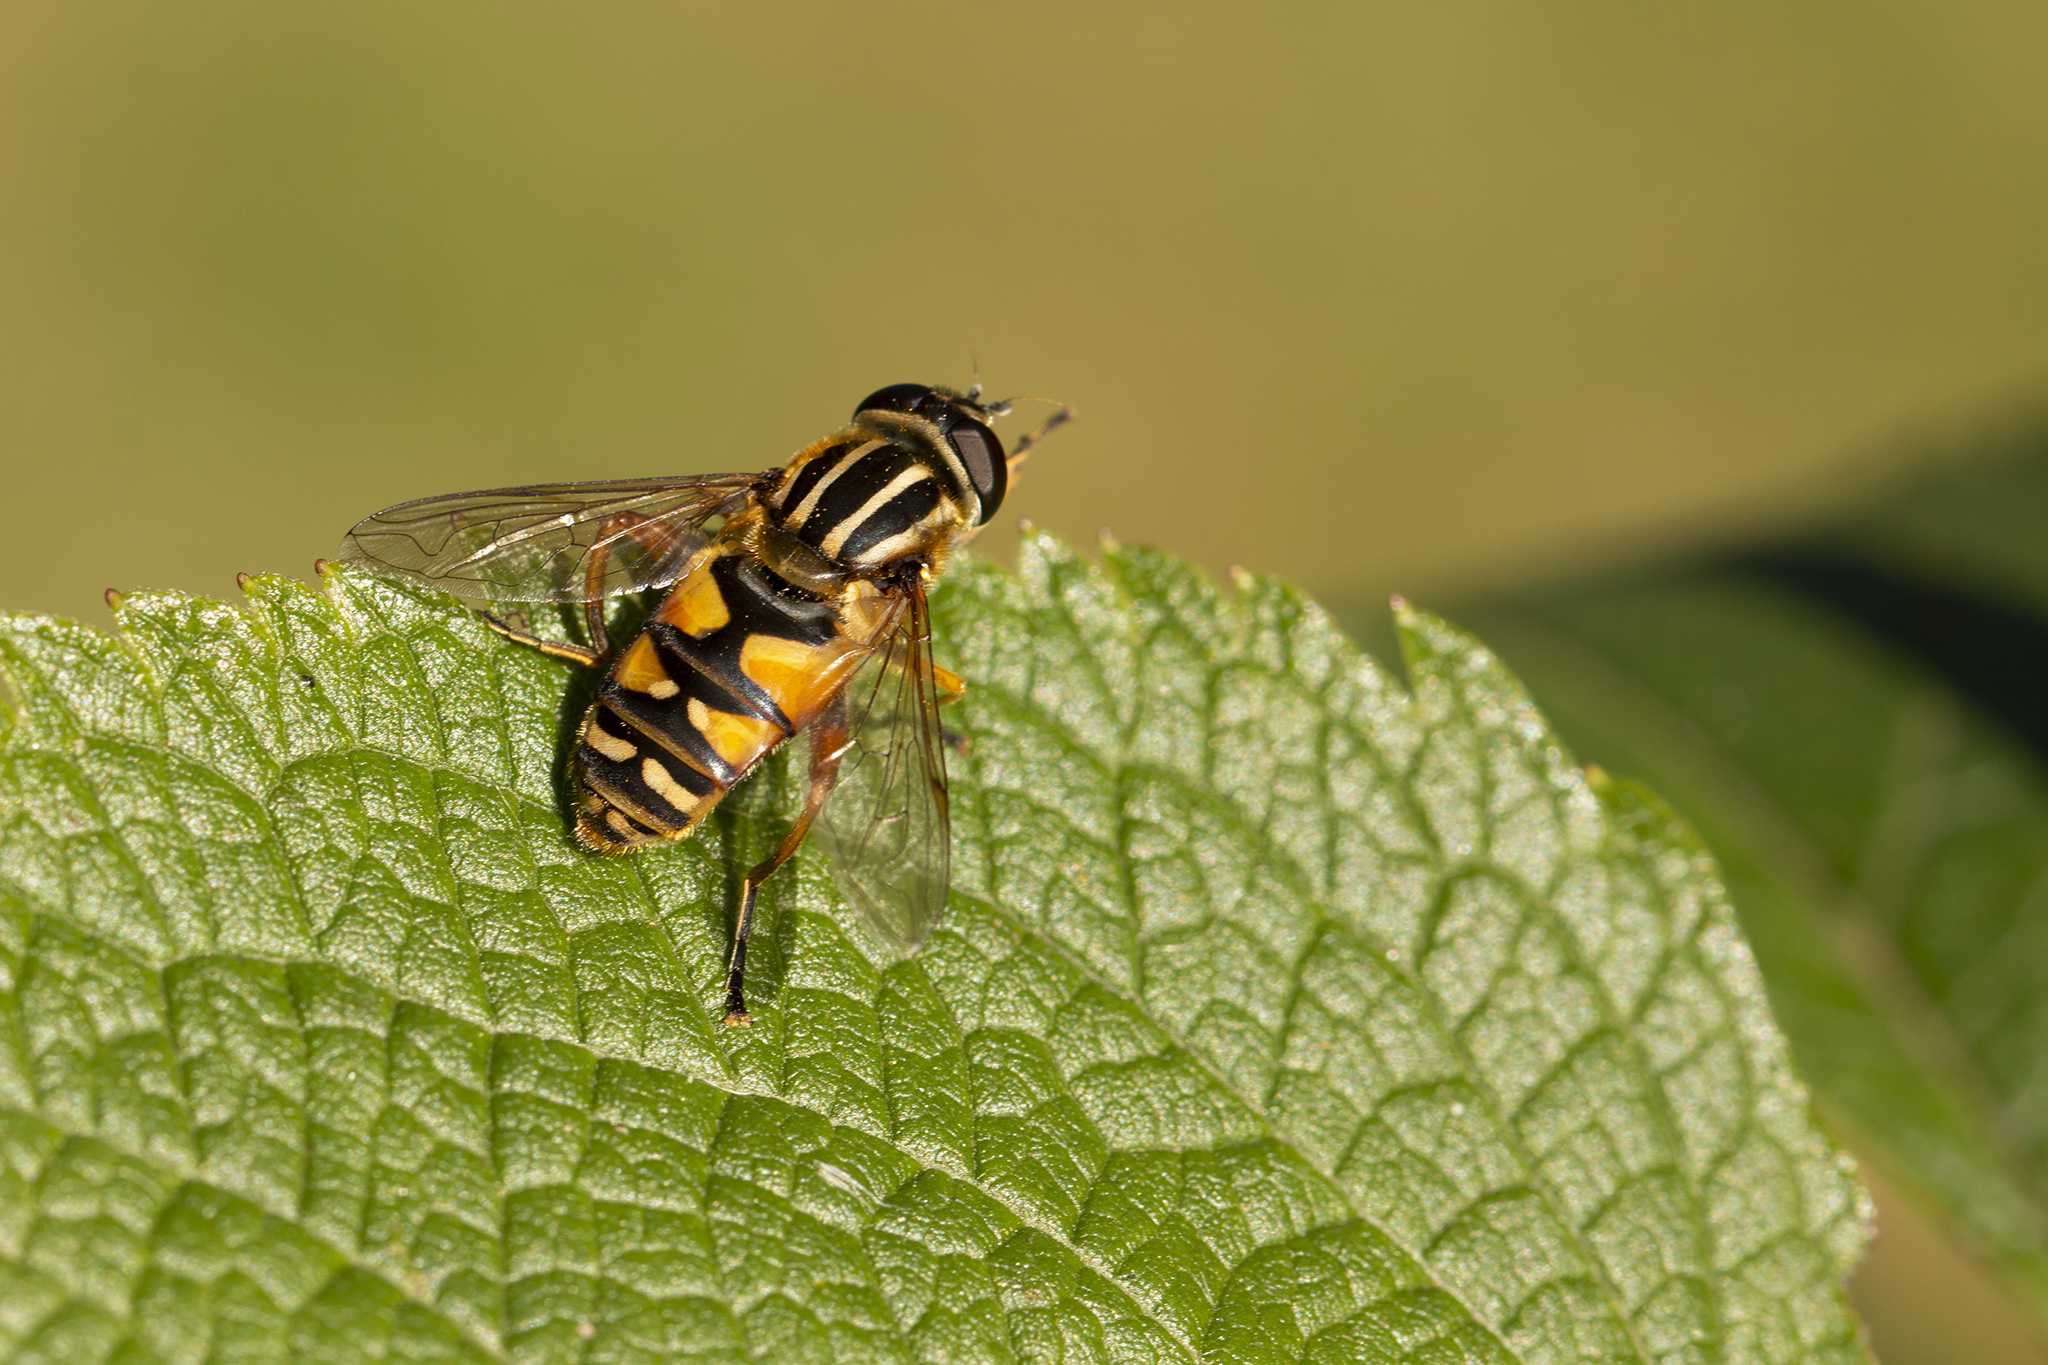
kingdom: Animalia
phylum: Arthropoda
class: Insecta
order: Diptera
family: Syrphidae
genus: Helophilus
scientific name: Helophilus pendulus
